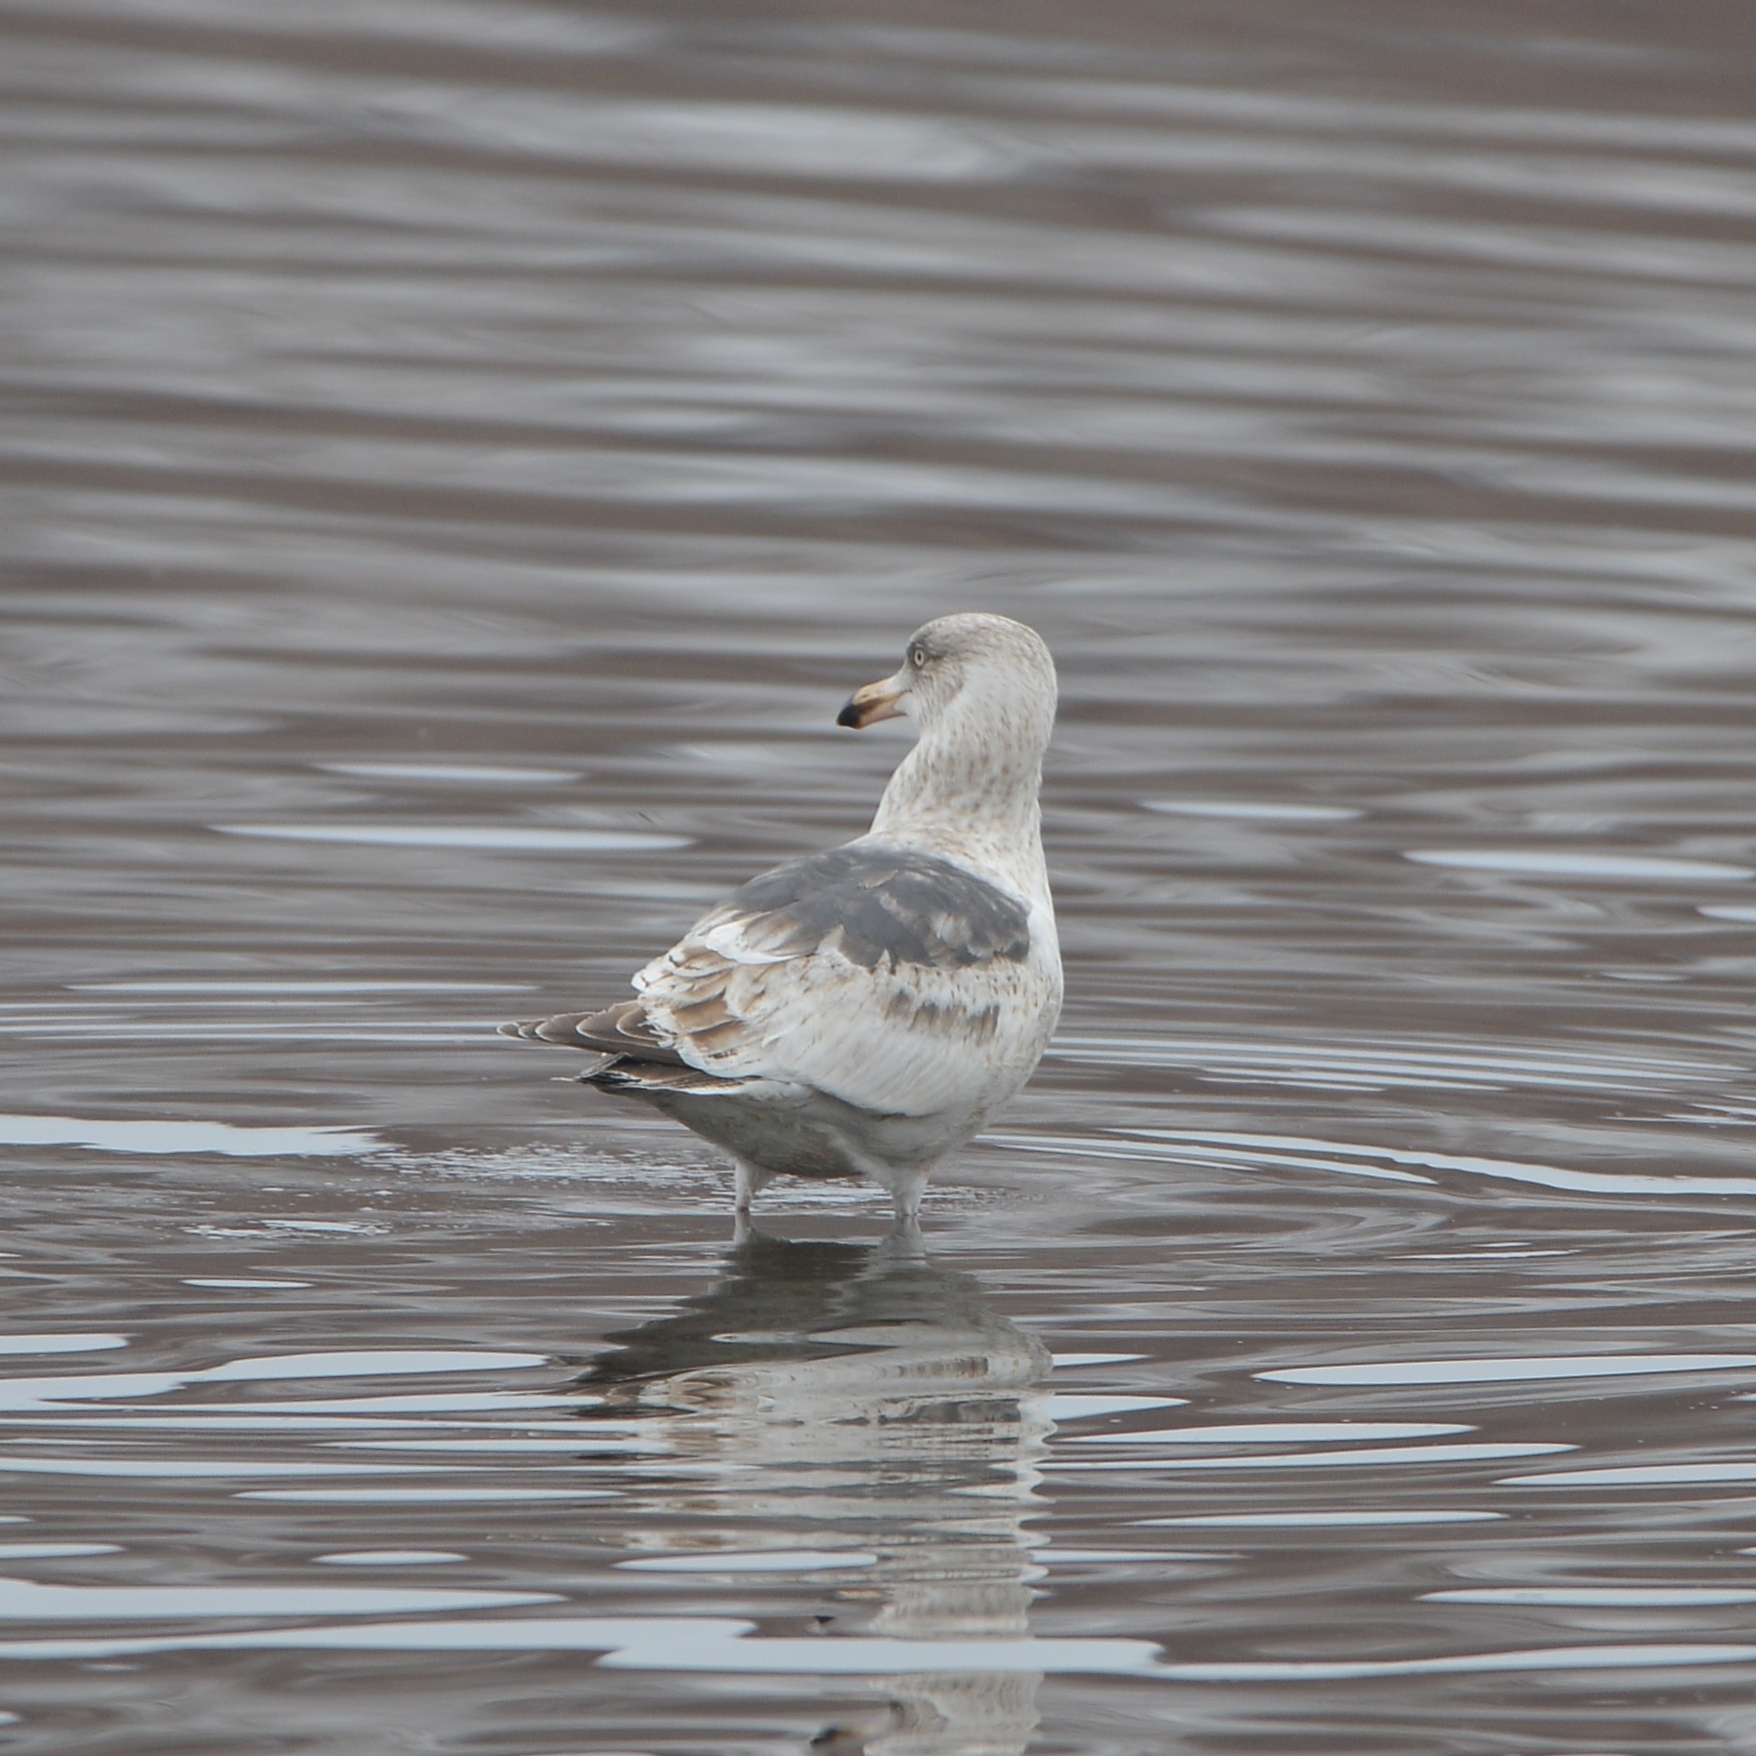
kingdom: Animalia
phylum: Chordata
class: Aves
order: Charadriiformes
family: Laridae
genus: Larus
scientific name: Larus schistisagus
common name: Slaty-backed gull
